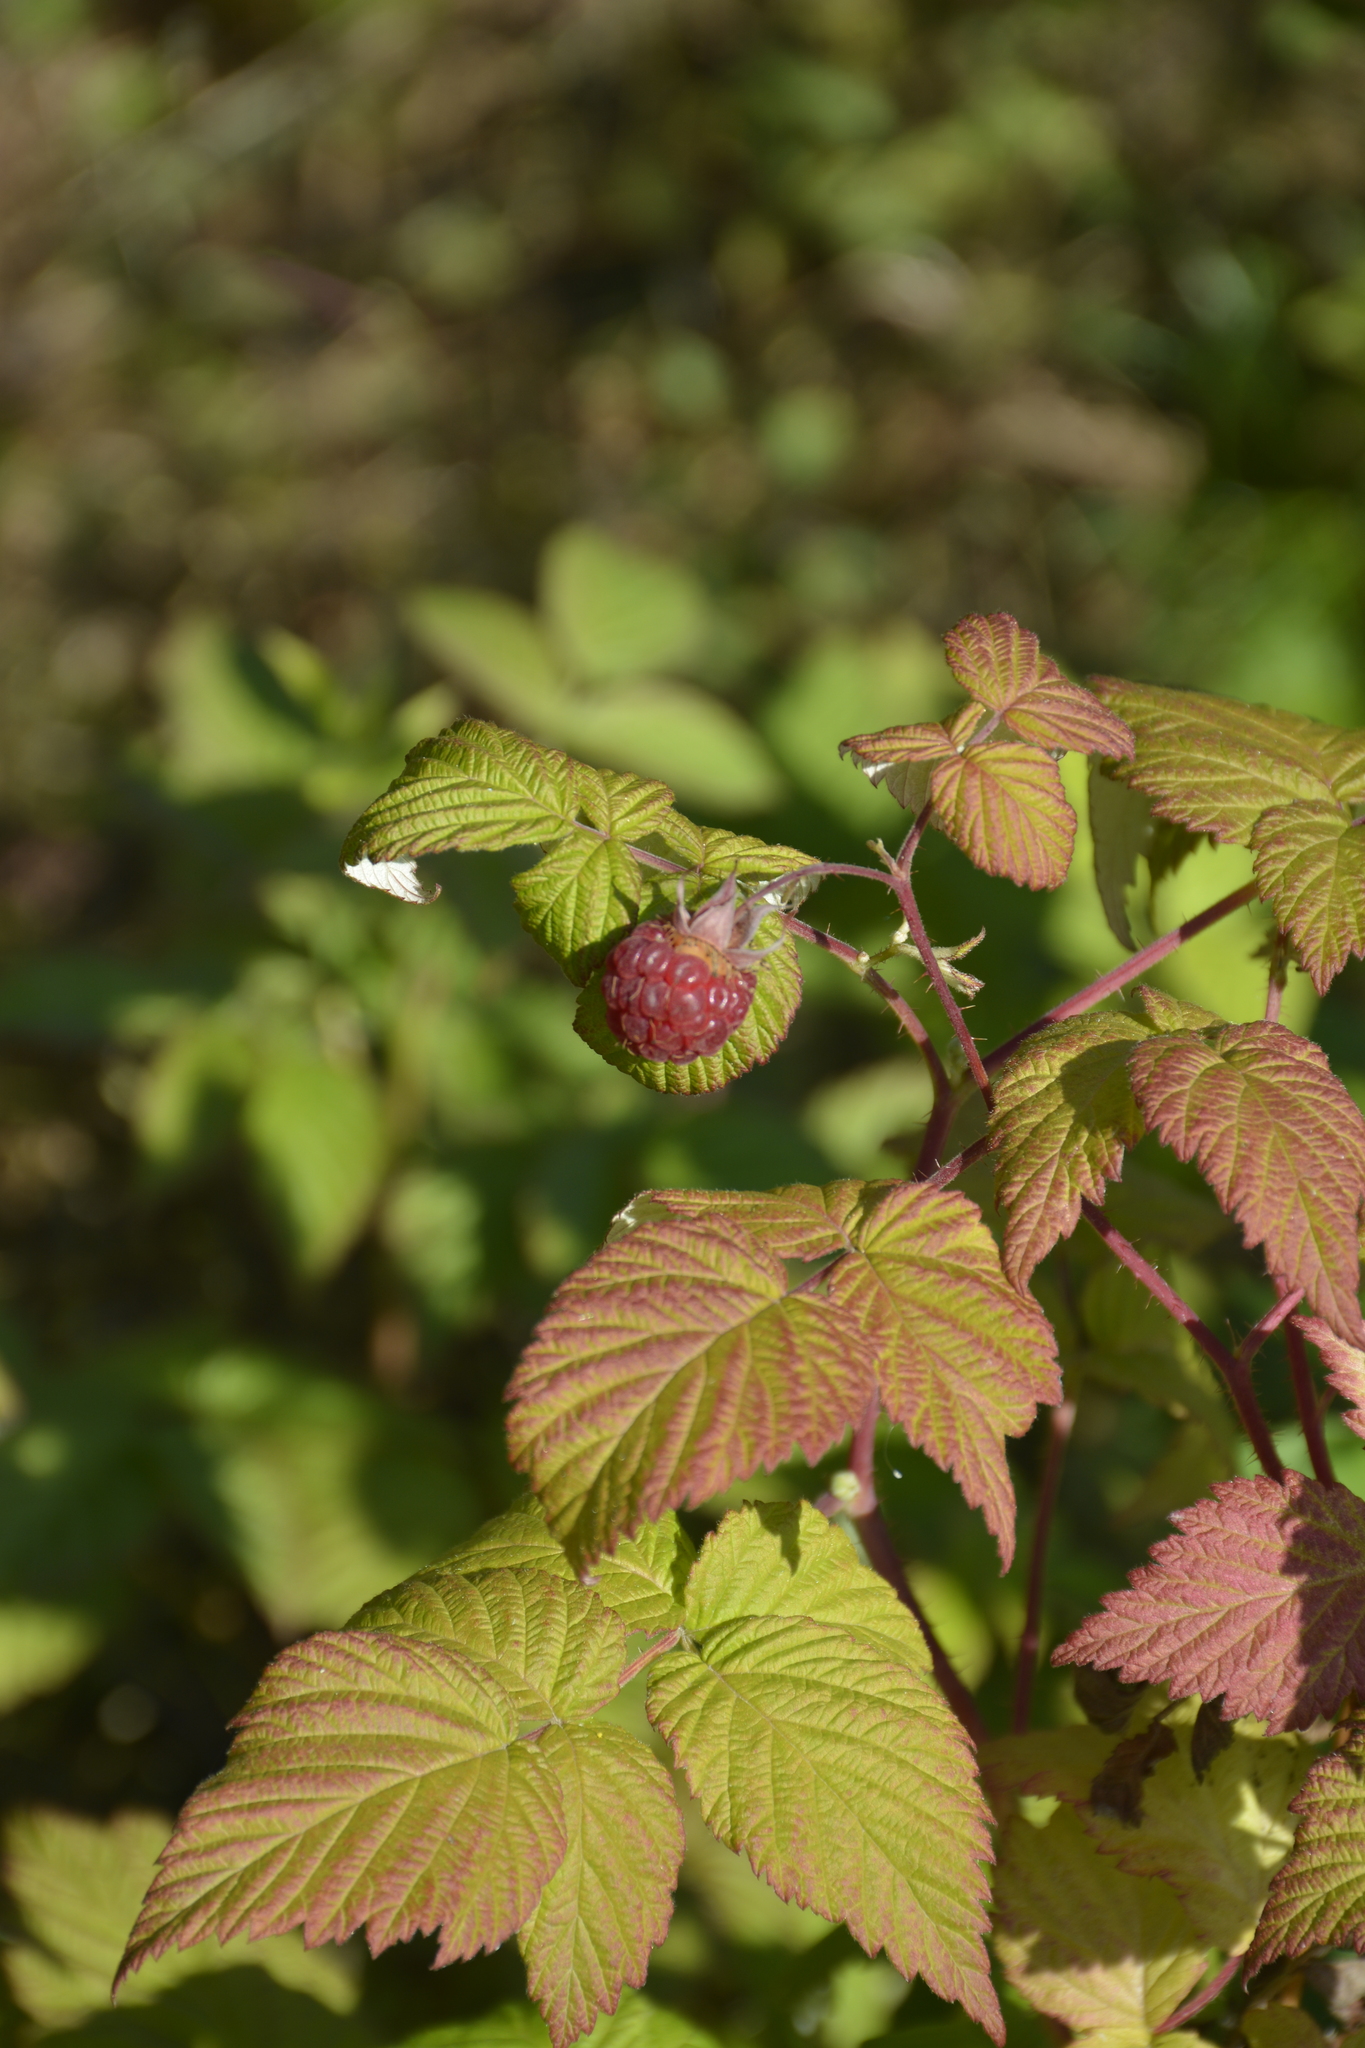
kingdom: Plantae
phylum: Tracheophyta
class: Magnoliopsida
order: Rosales
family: Rosaceae
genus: Rubus
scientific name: Rubus idaeus
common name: Raspberry
